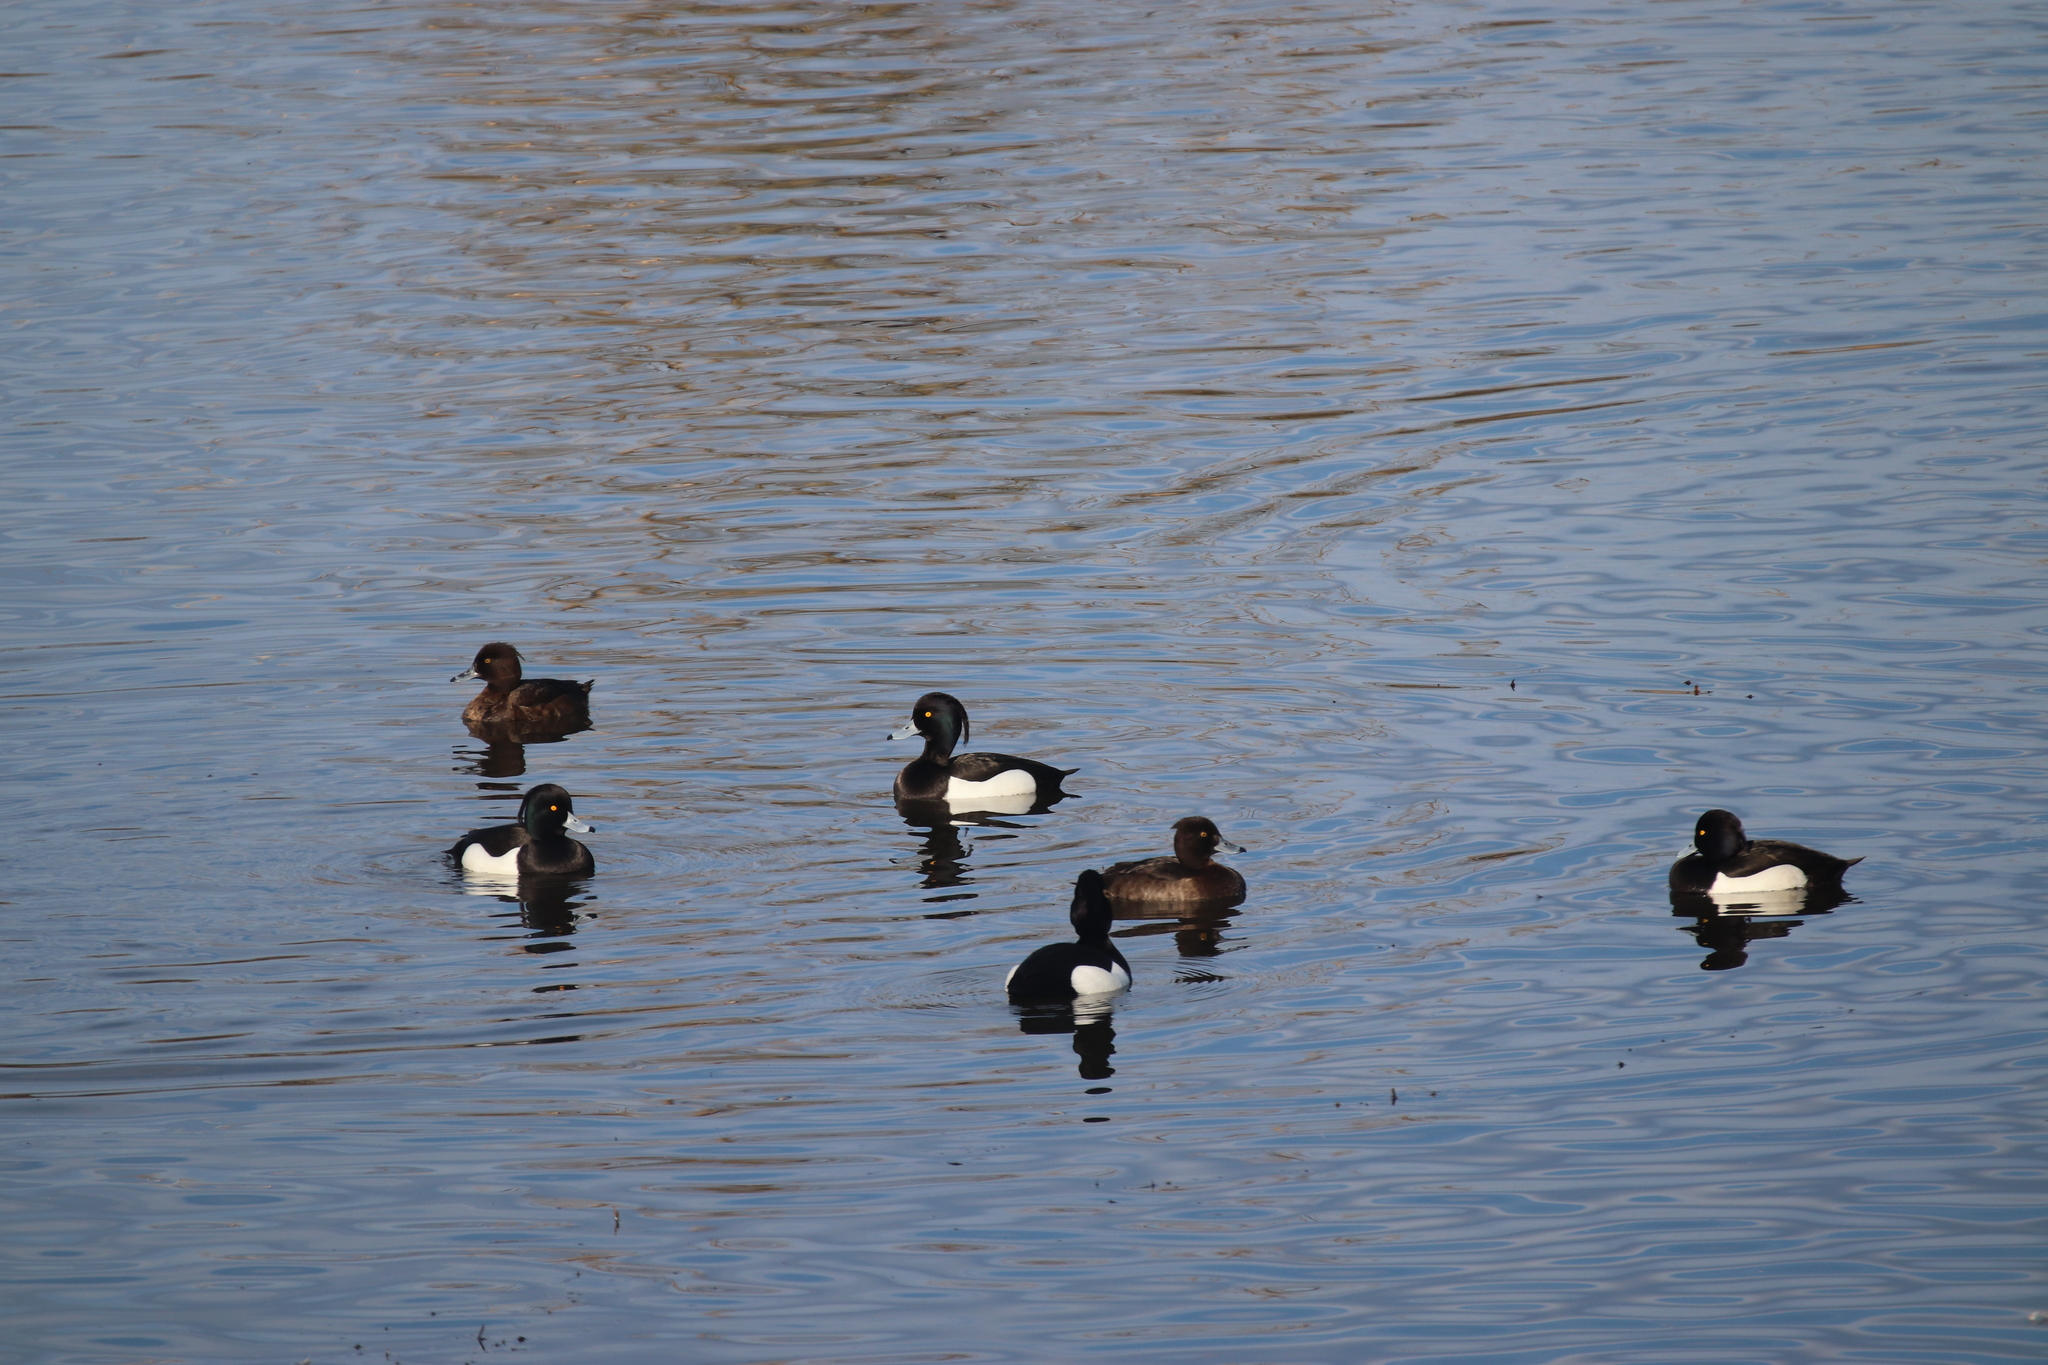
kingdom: Animalia
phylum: Chordata
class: Aves
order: Anseriformes
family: Anatidae
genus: Aythya
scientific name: Aythya fuligula
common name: Tufted duck
